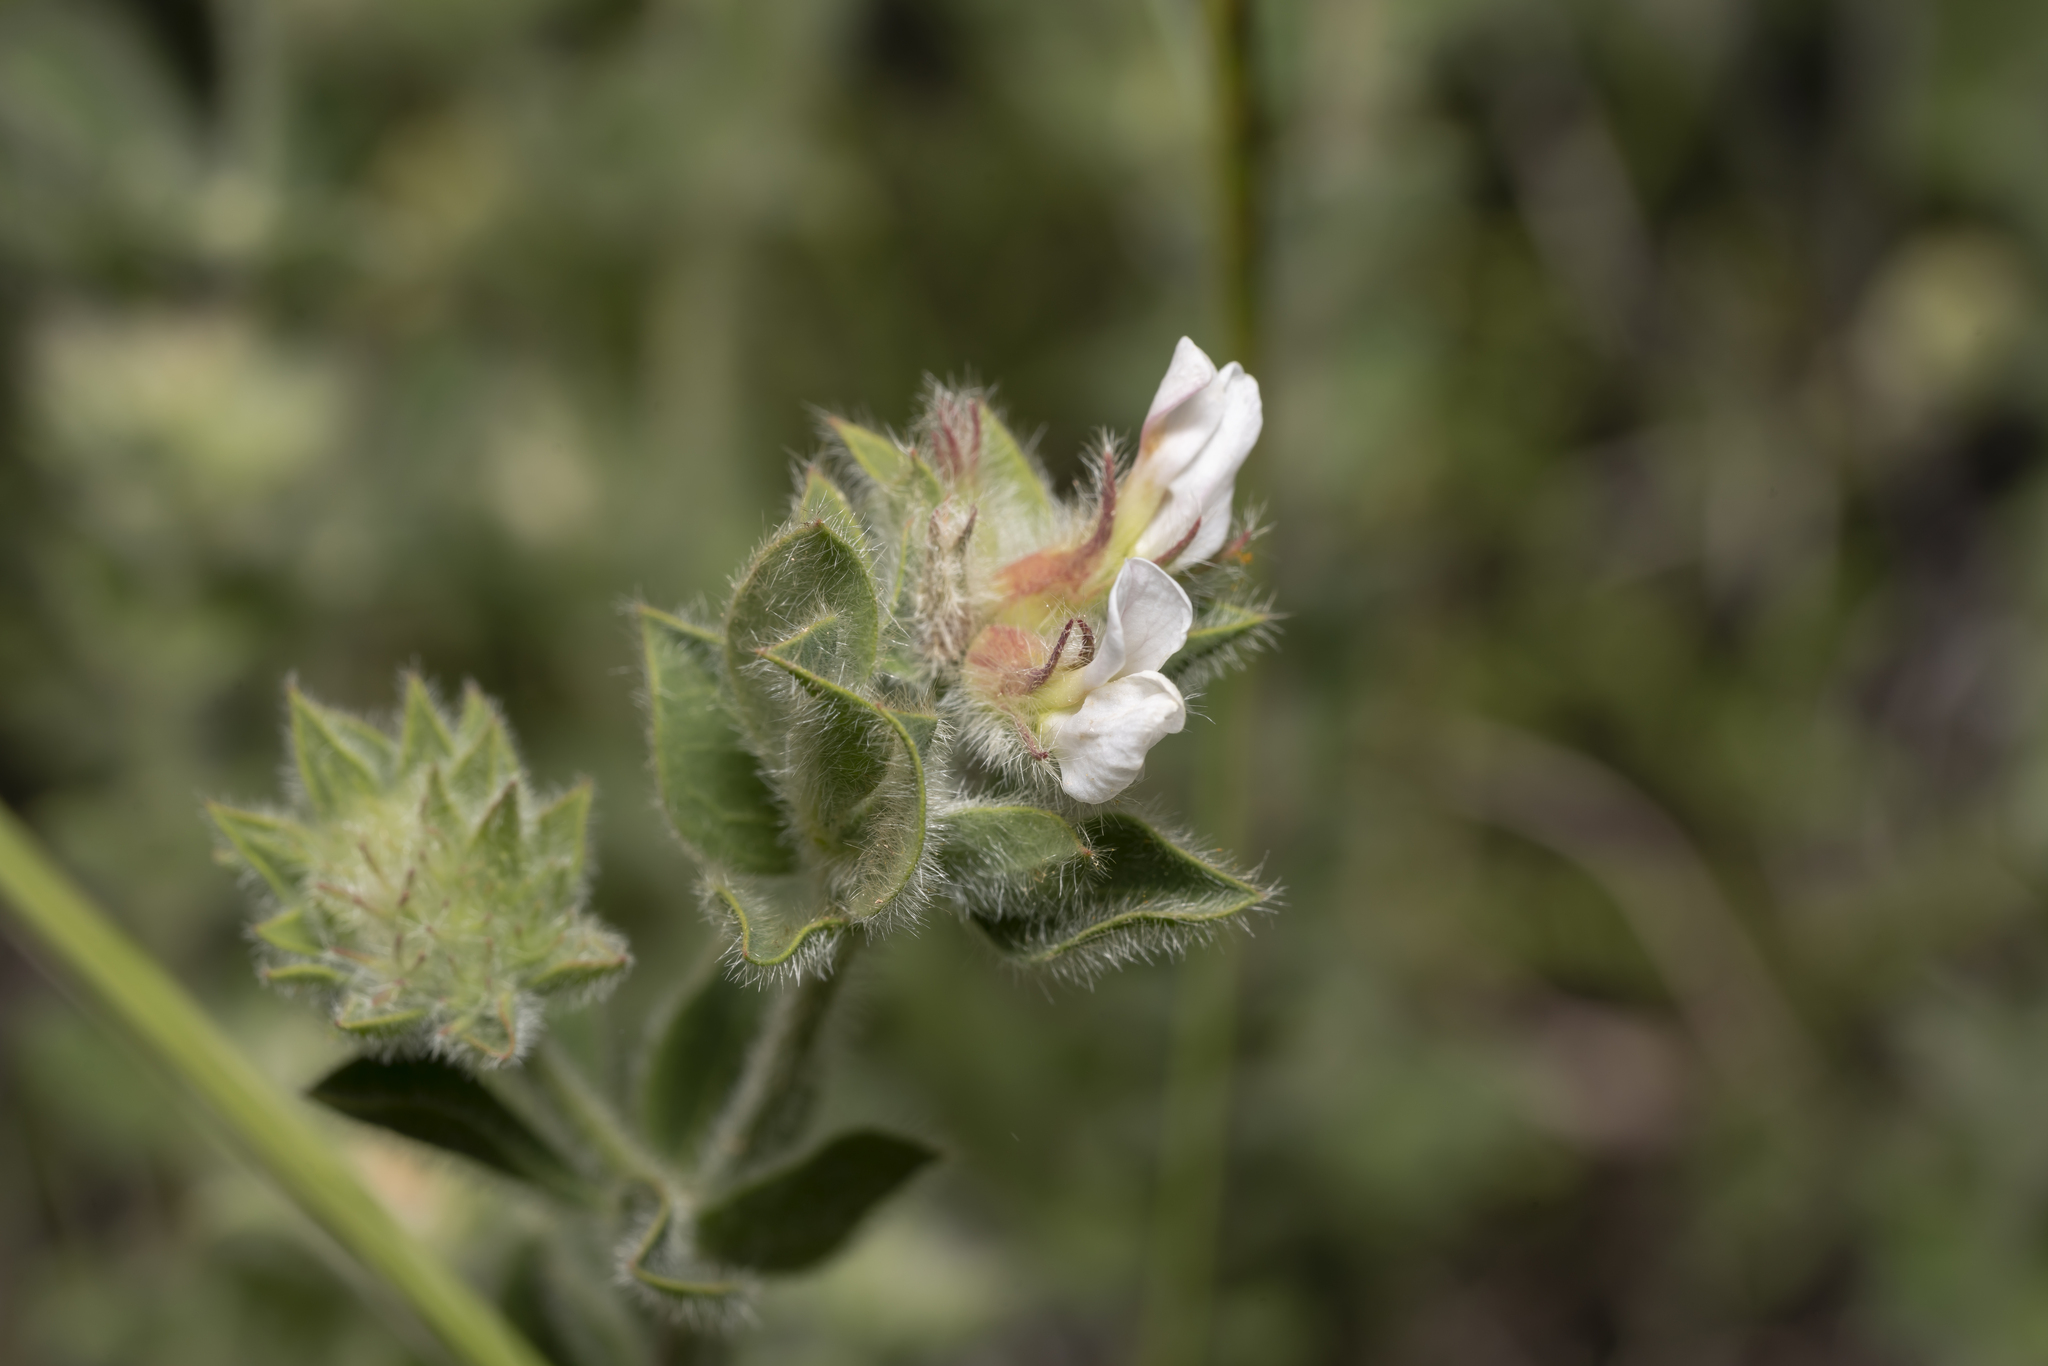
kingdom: Plantae
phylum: Tracheophyta
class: Magnoliopsida
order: Fabales
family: Fabaceae
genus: Lotus
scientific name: Lotus hirsutus
